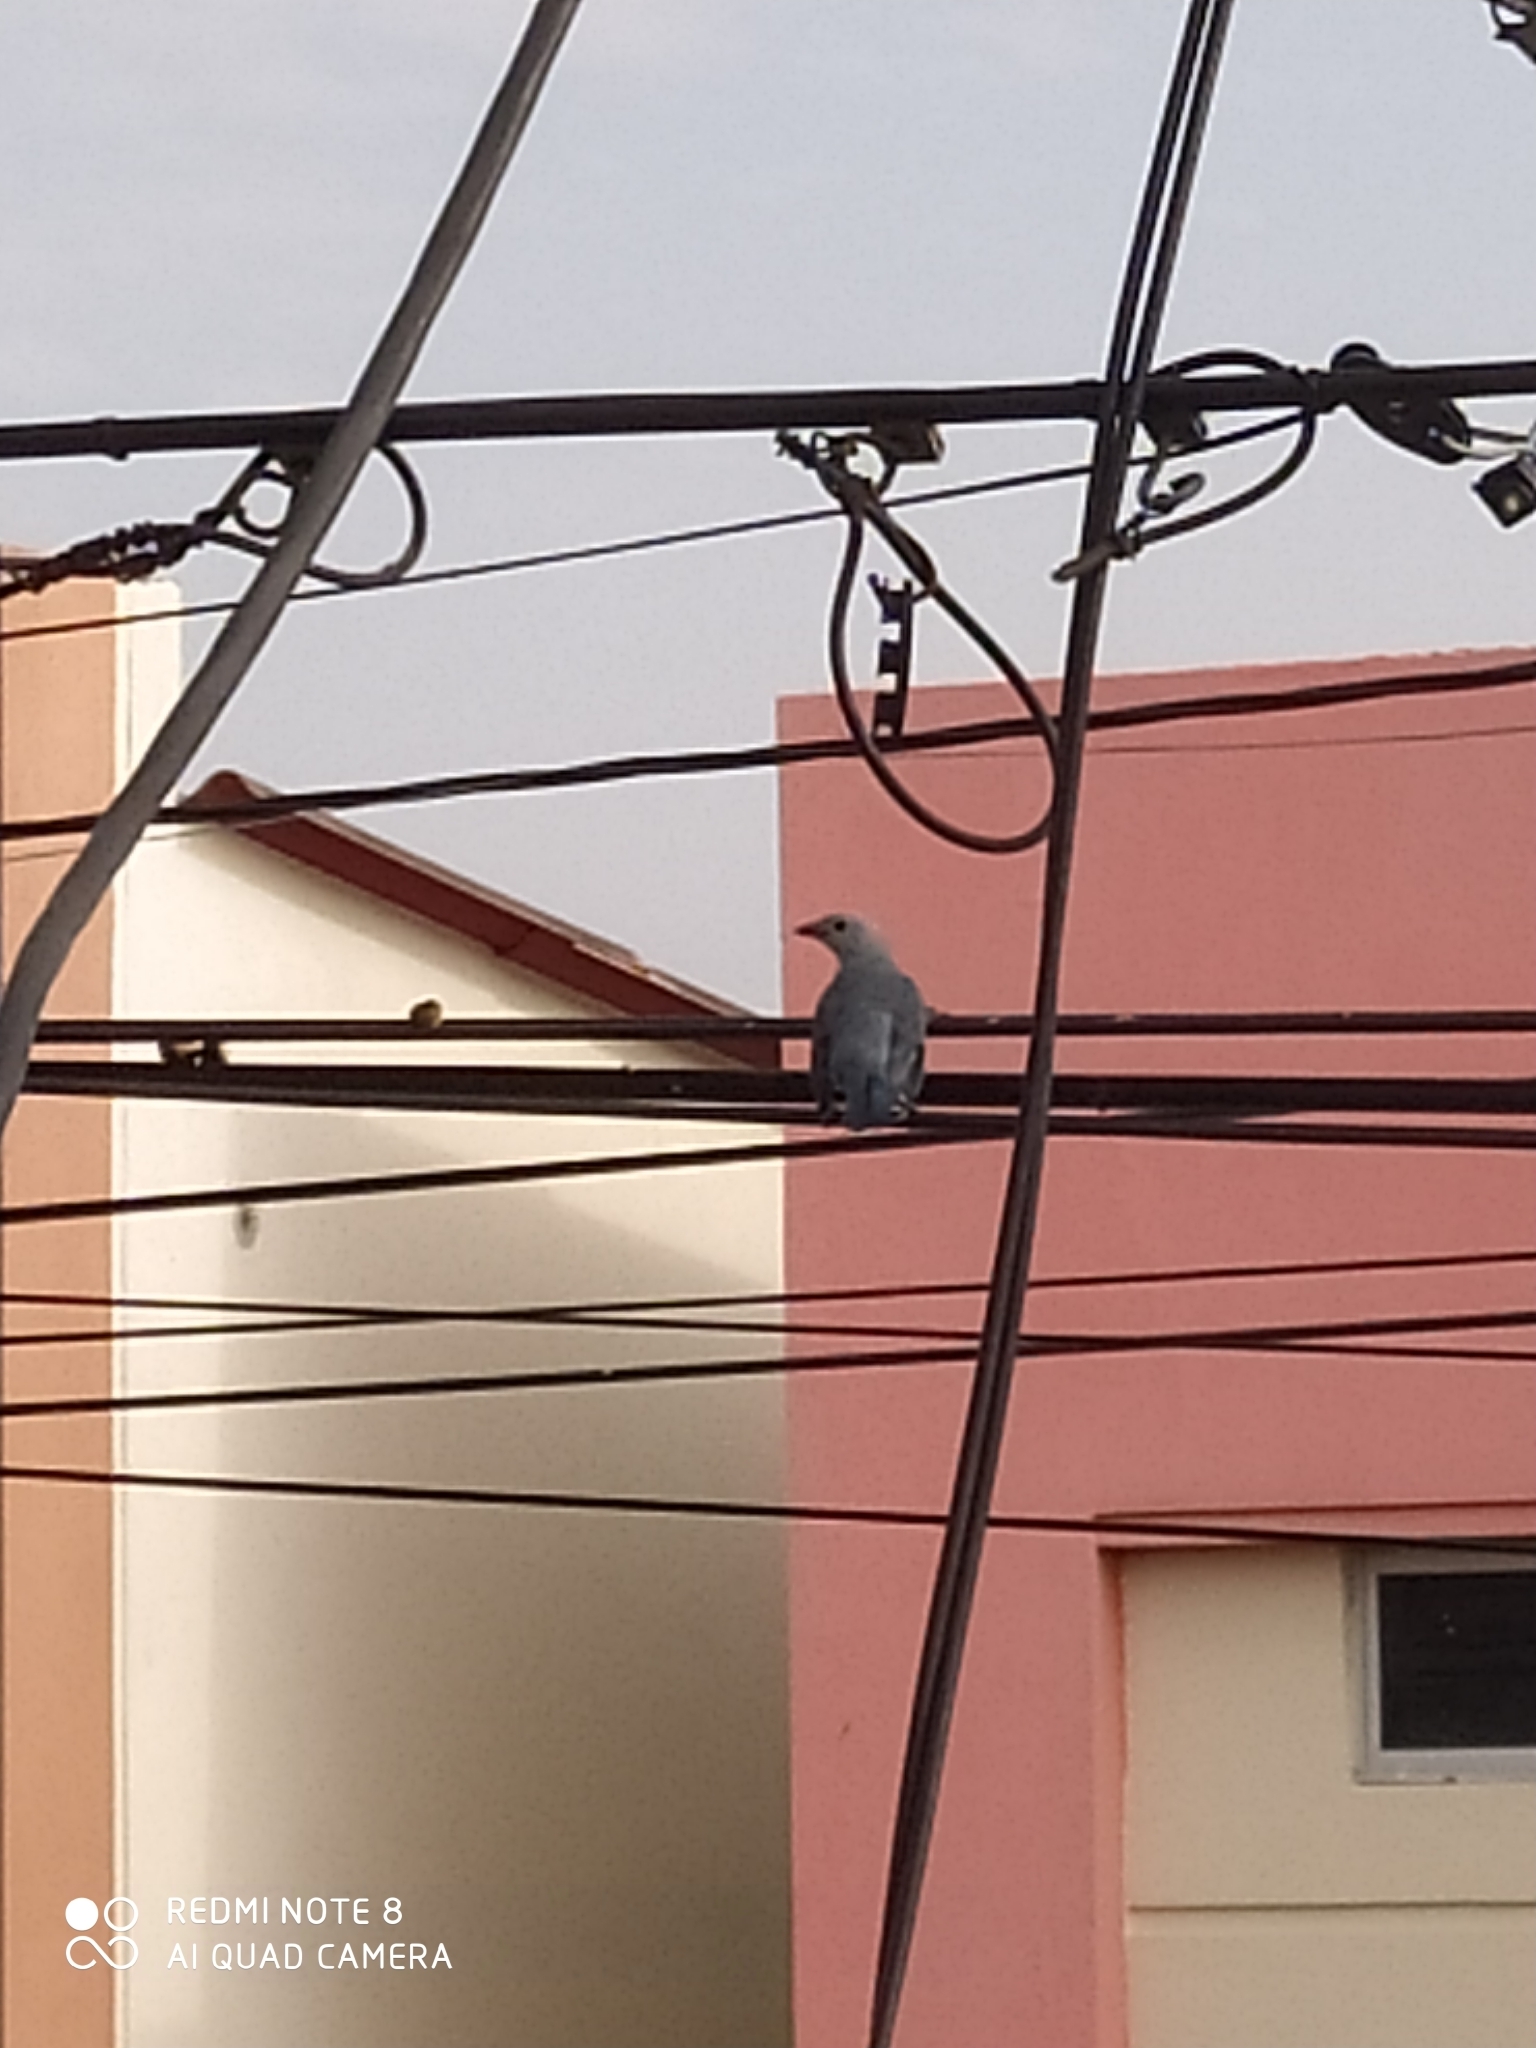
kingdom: Animalia
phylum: Chordata
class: Aves
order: Passeriformes
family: Thraupidae
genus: Thraupis
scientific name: Thraupis episcopus
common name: Blue-grey tanager
